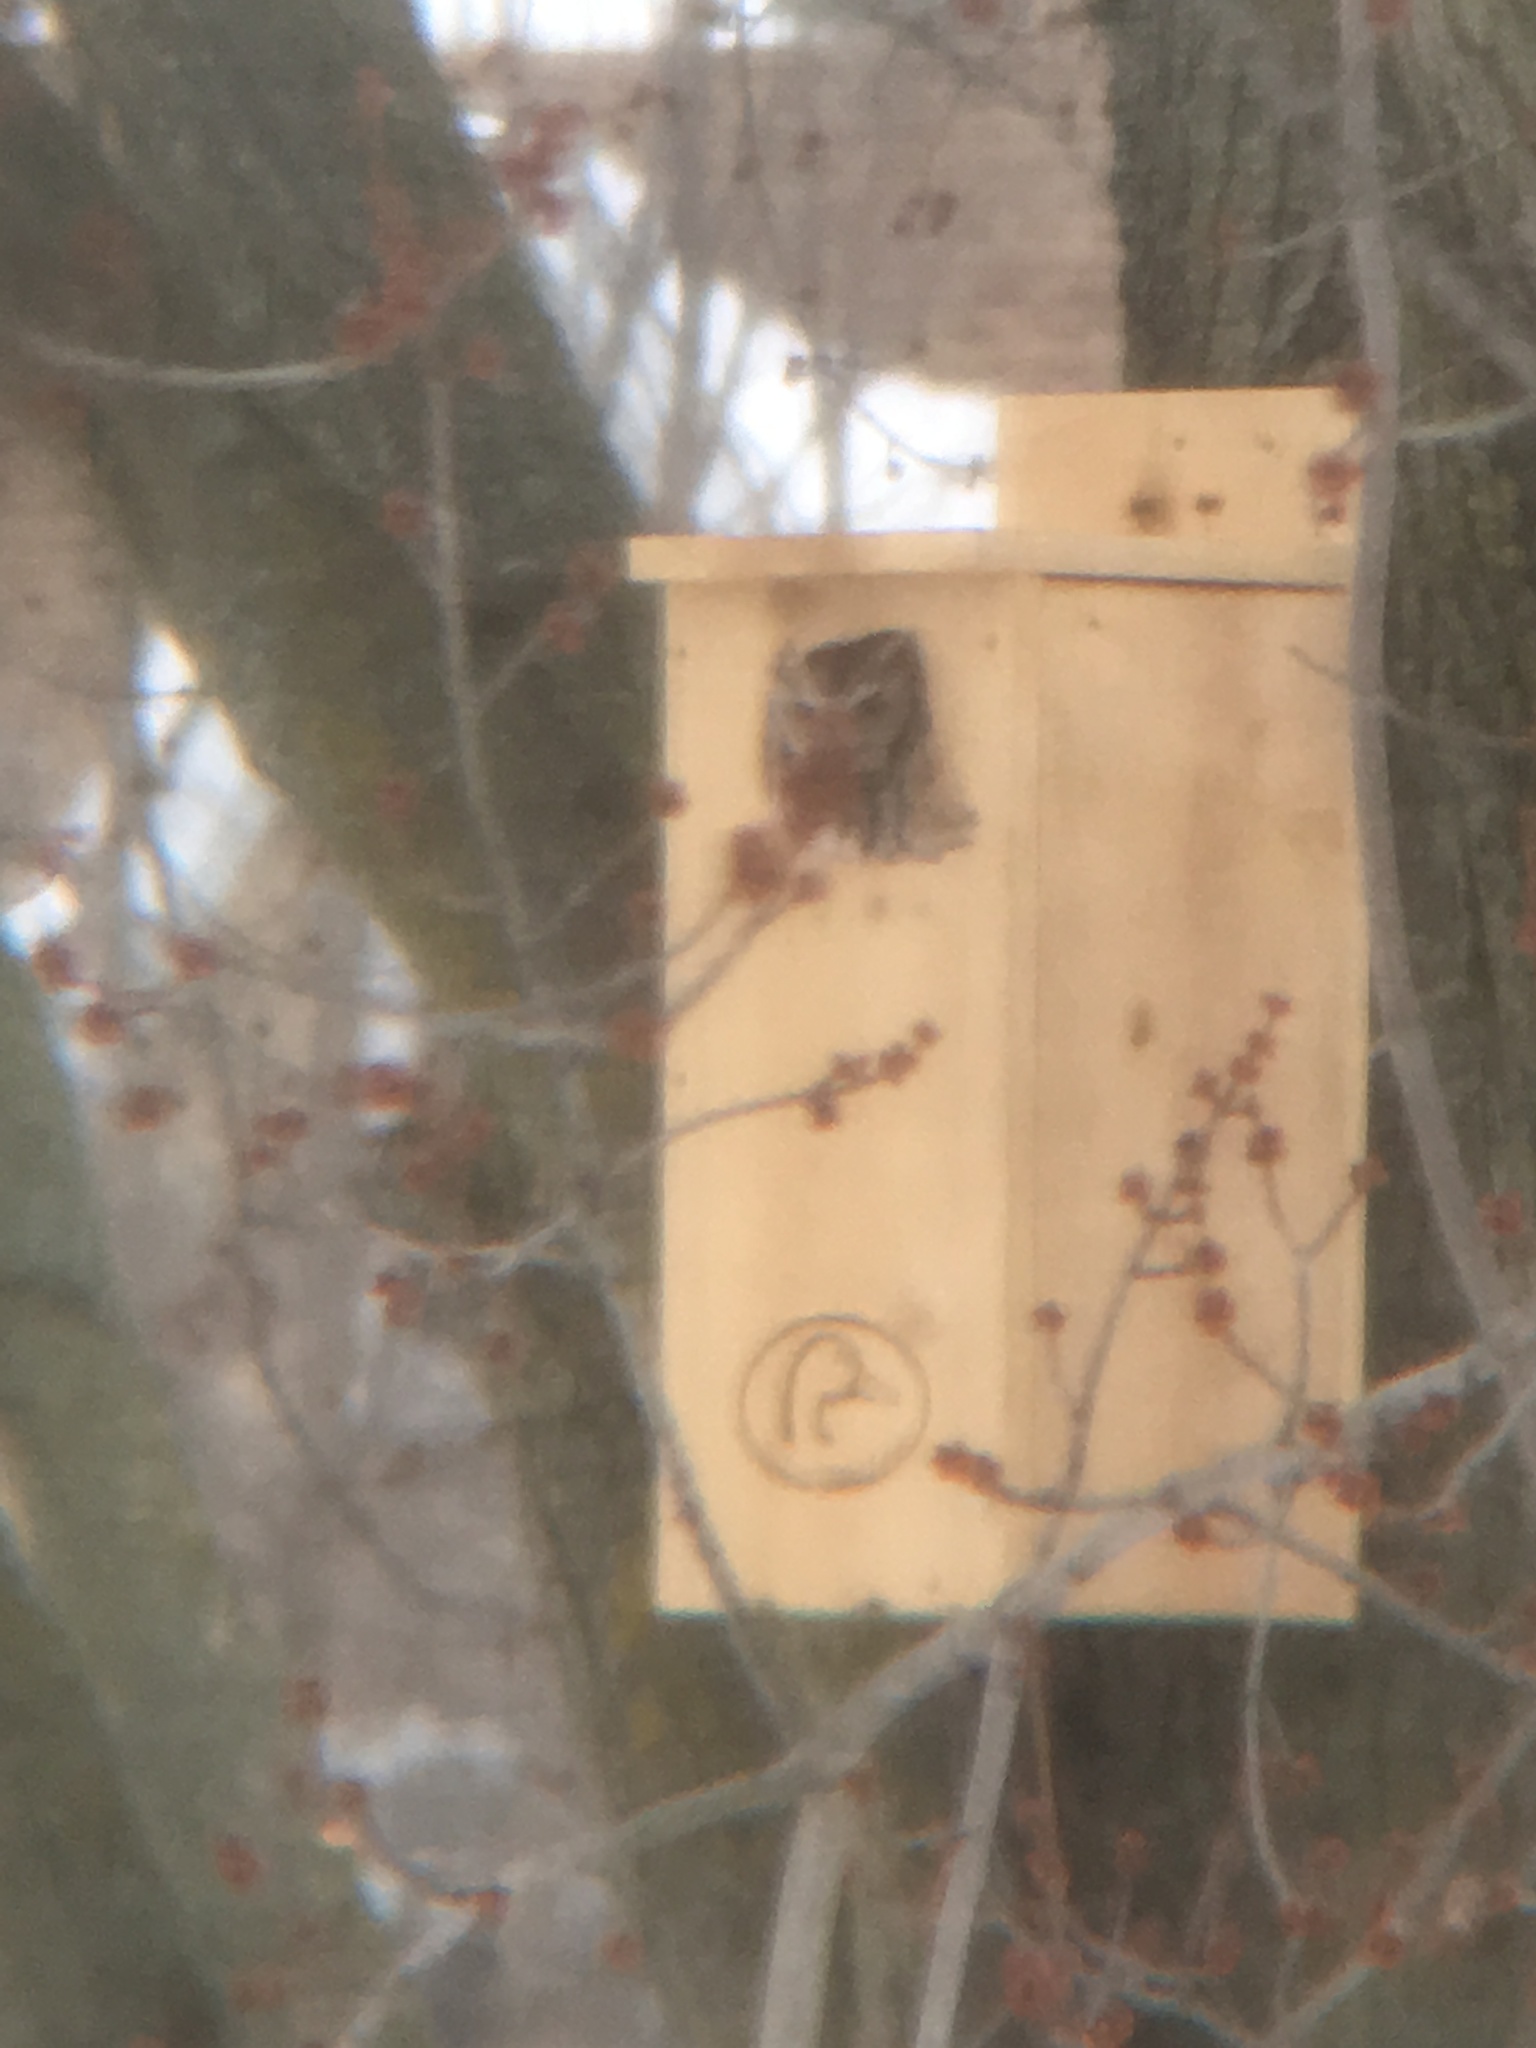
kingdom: Animalia
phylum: Chordata
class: Aves
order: Strigiformes
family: Strigidae
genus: Megascops
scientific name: Megascops asio
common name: Eastern screech-owl
